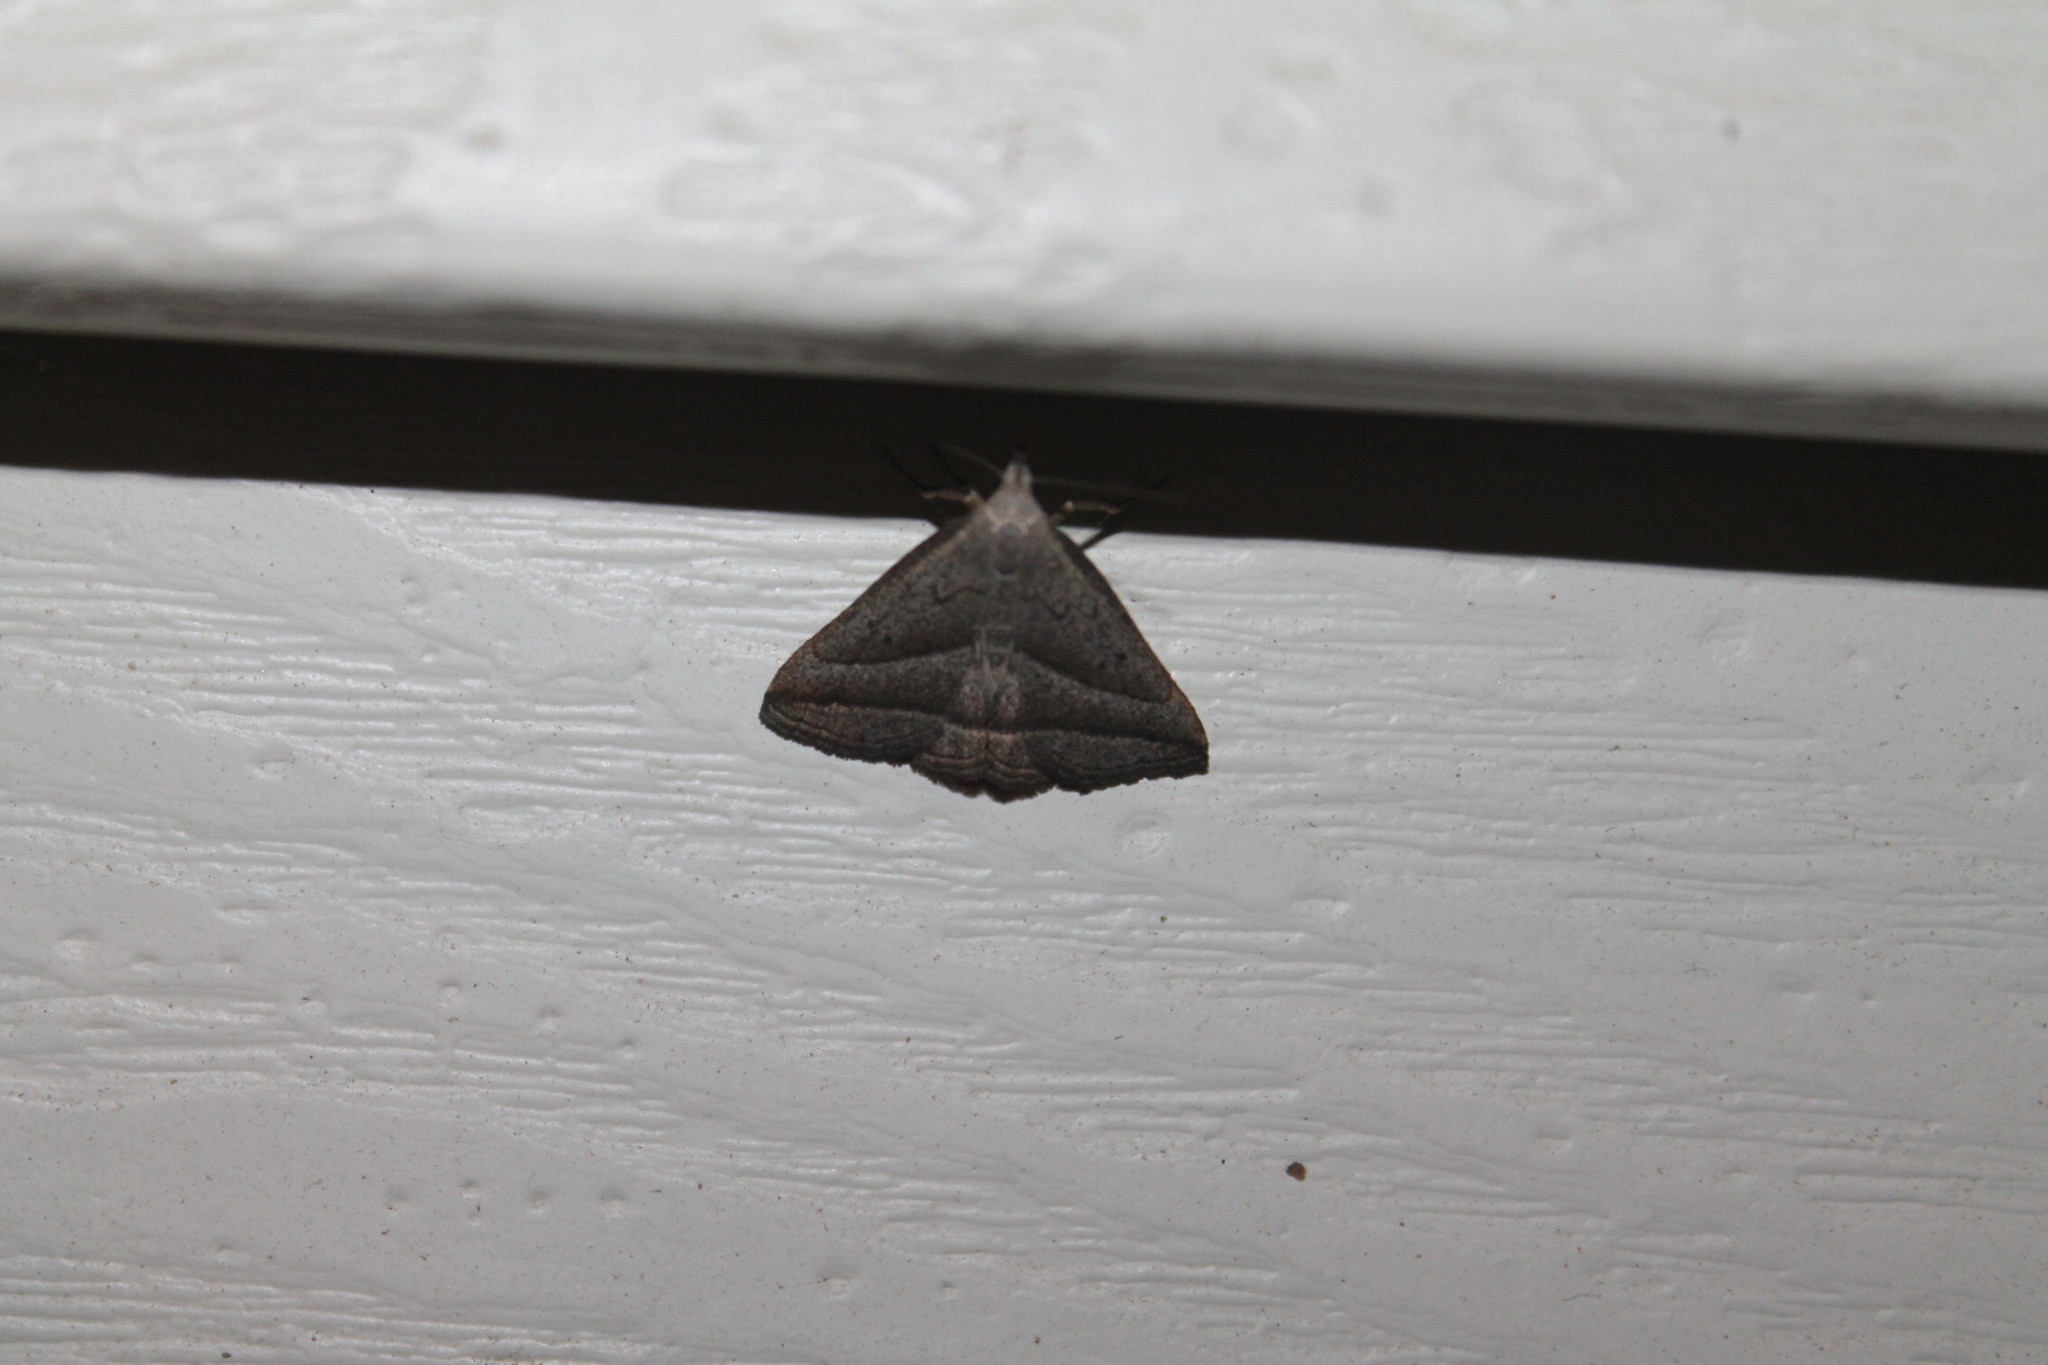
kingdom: Animalia
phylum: Arthropoda
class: Insecta
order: Lepidoptera
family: Erebidae
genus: Macrochilo
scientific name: Macrochilo absorptalis
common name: Slant-lined owlet
